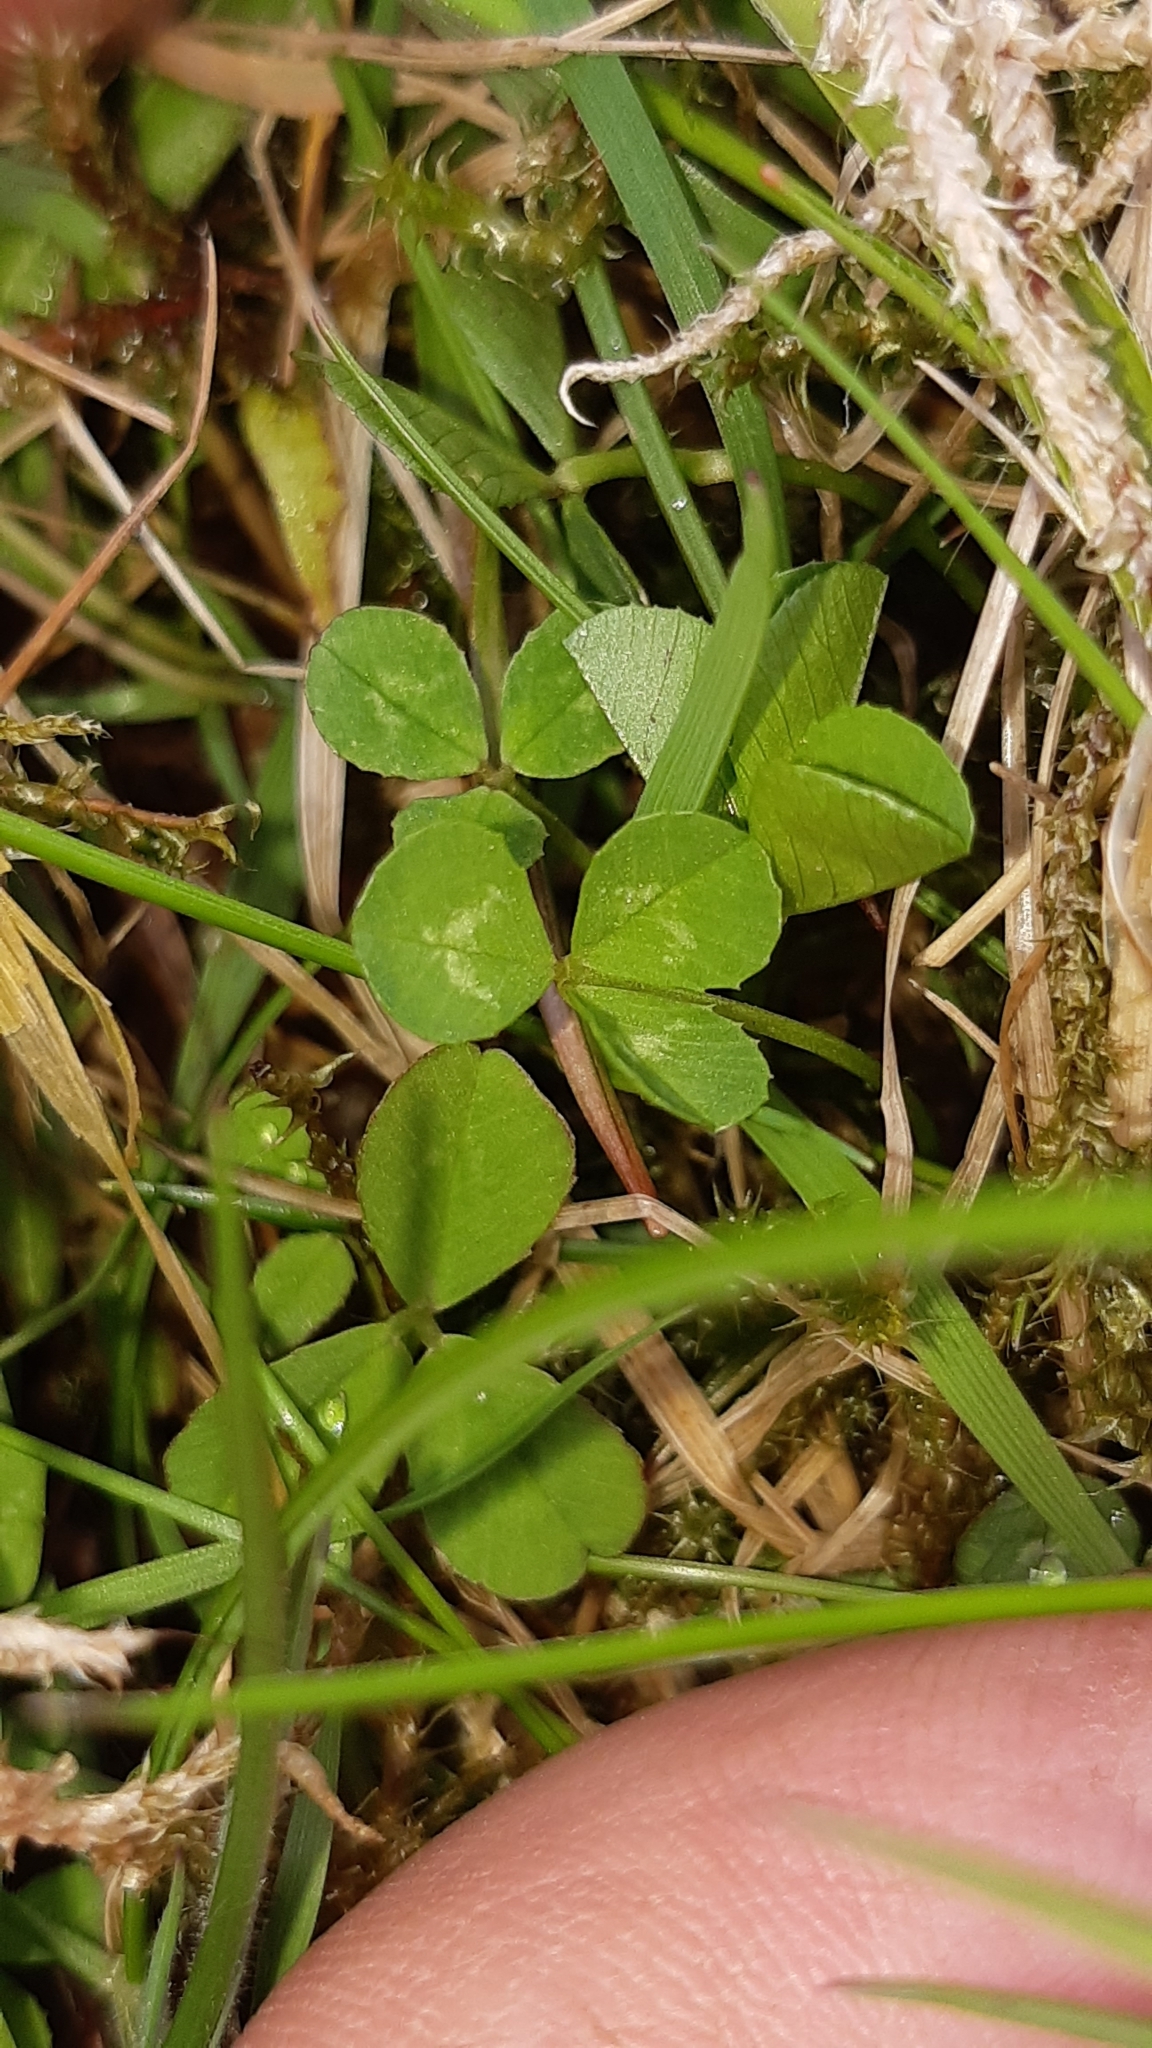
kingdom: Plantae
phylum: Tracheophyta
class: Magnoliopsida
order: Fabales
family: Fabaceae
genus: Trifolium
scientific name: Trifolium repens
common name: White clover
